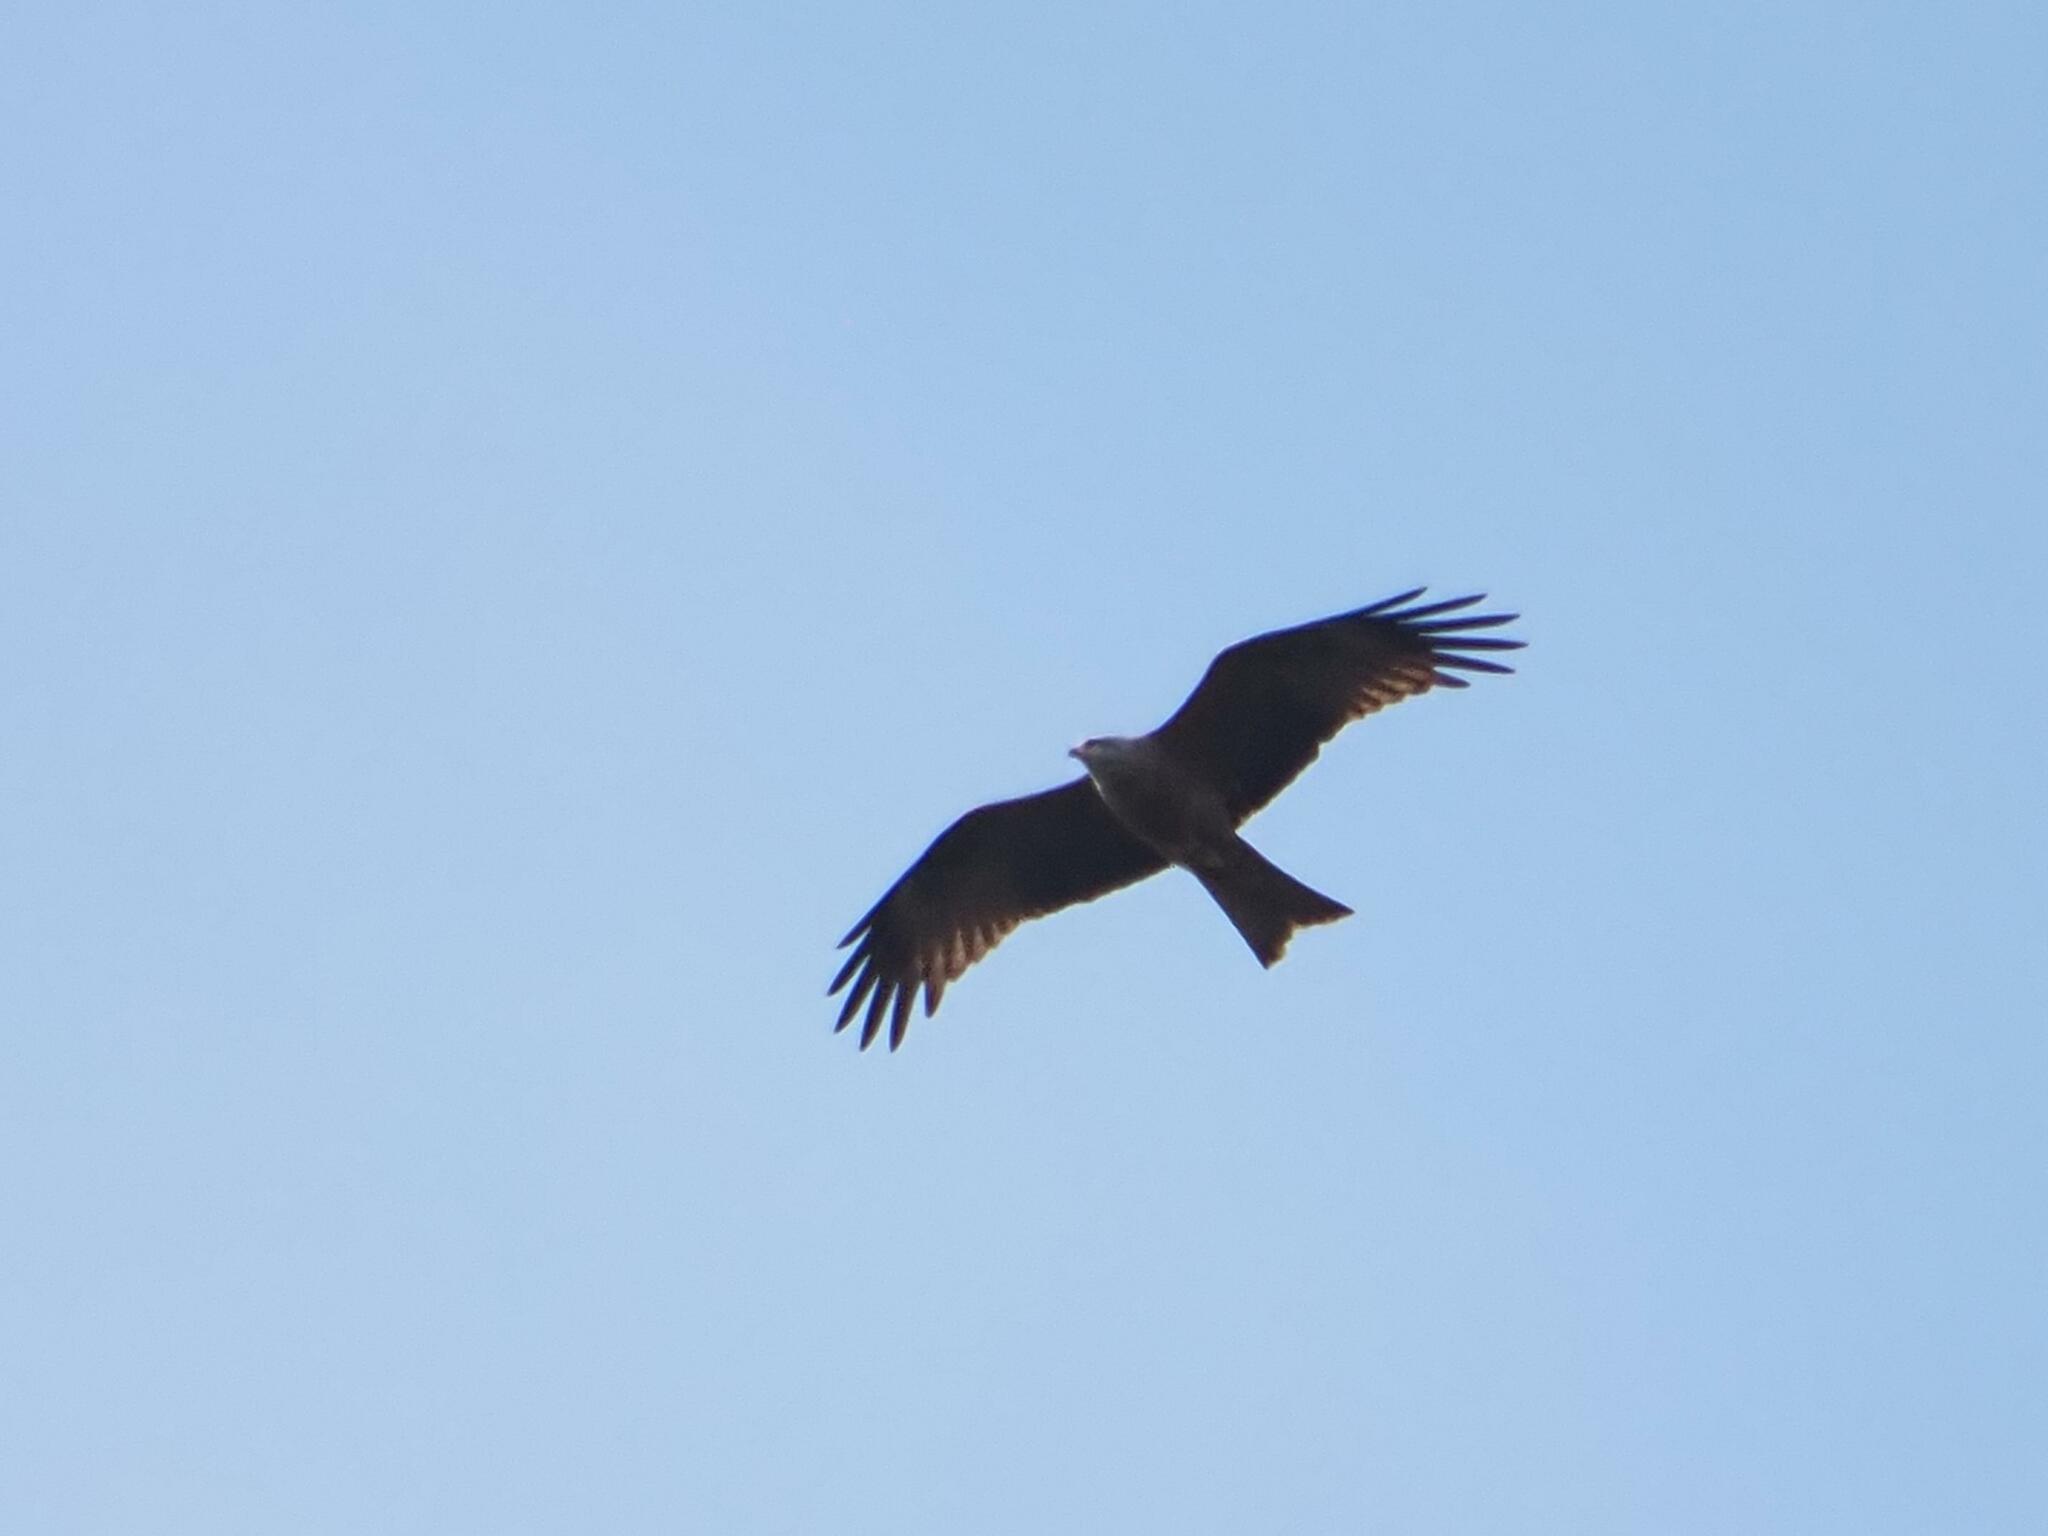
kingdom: Animalia
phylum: Chordata
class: Aves
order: Accipitriformes
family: Accipitridae
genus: Milvus
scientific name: Milvus migrans
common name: Black kite
